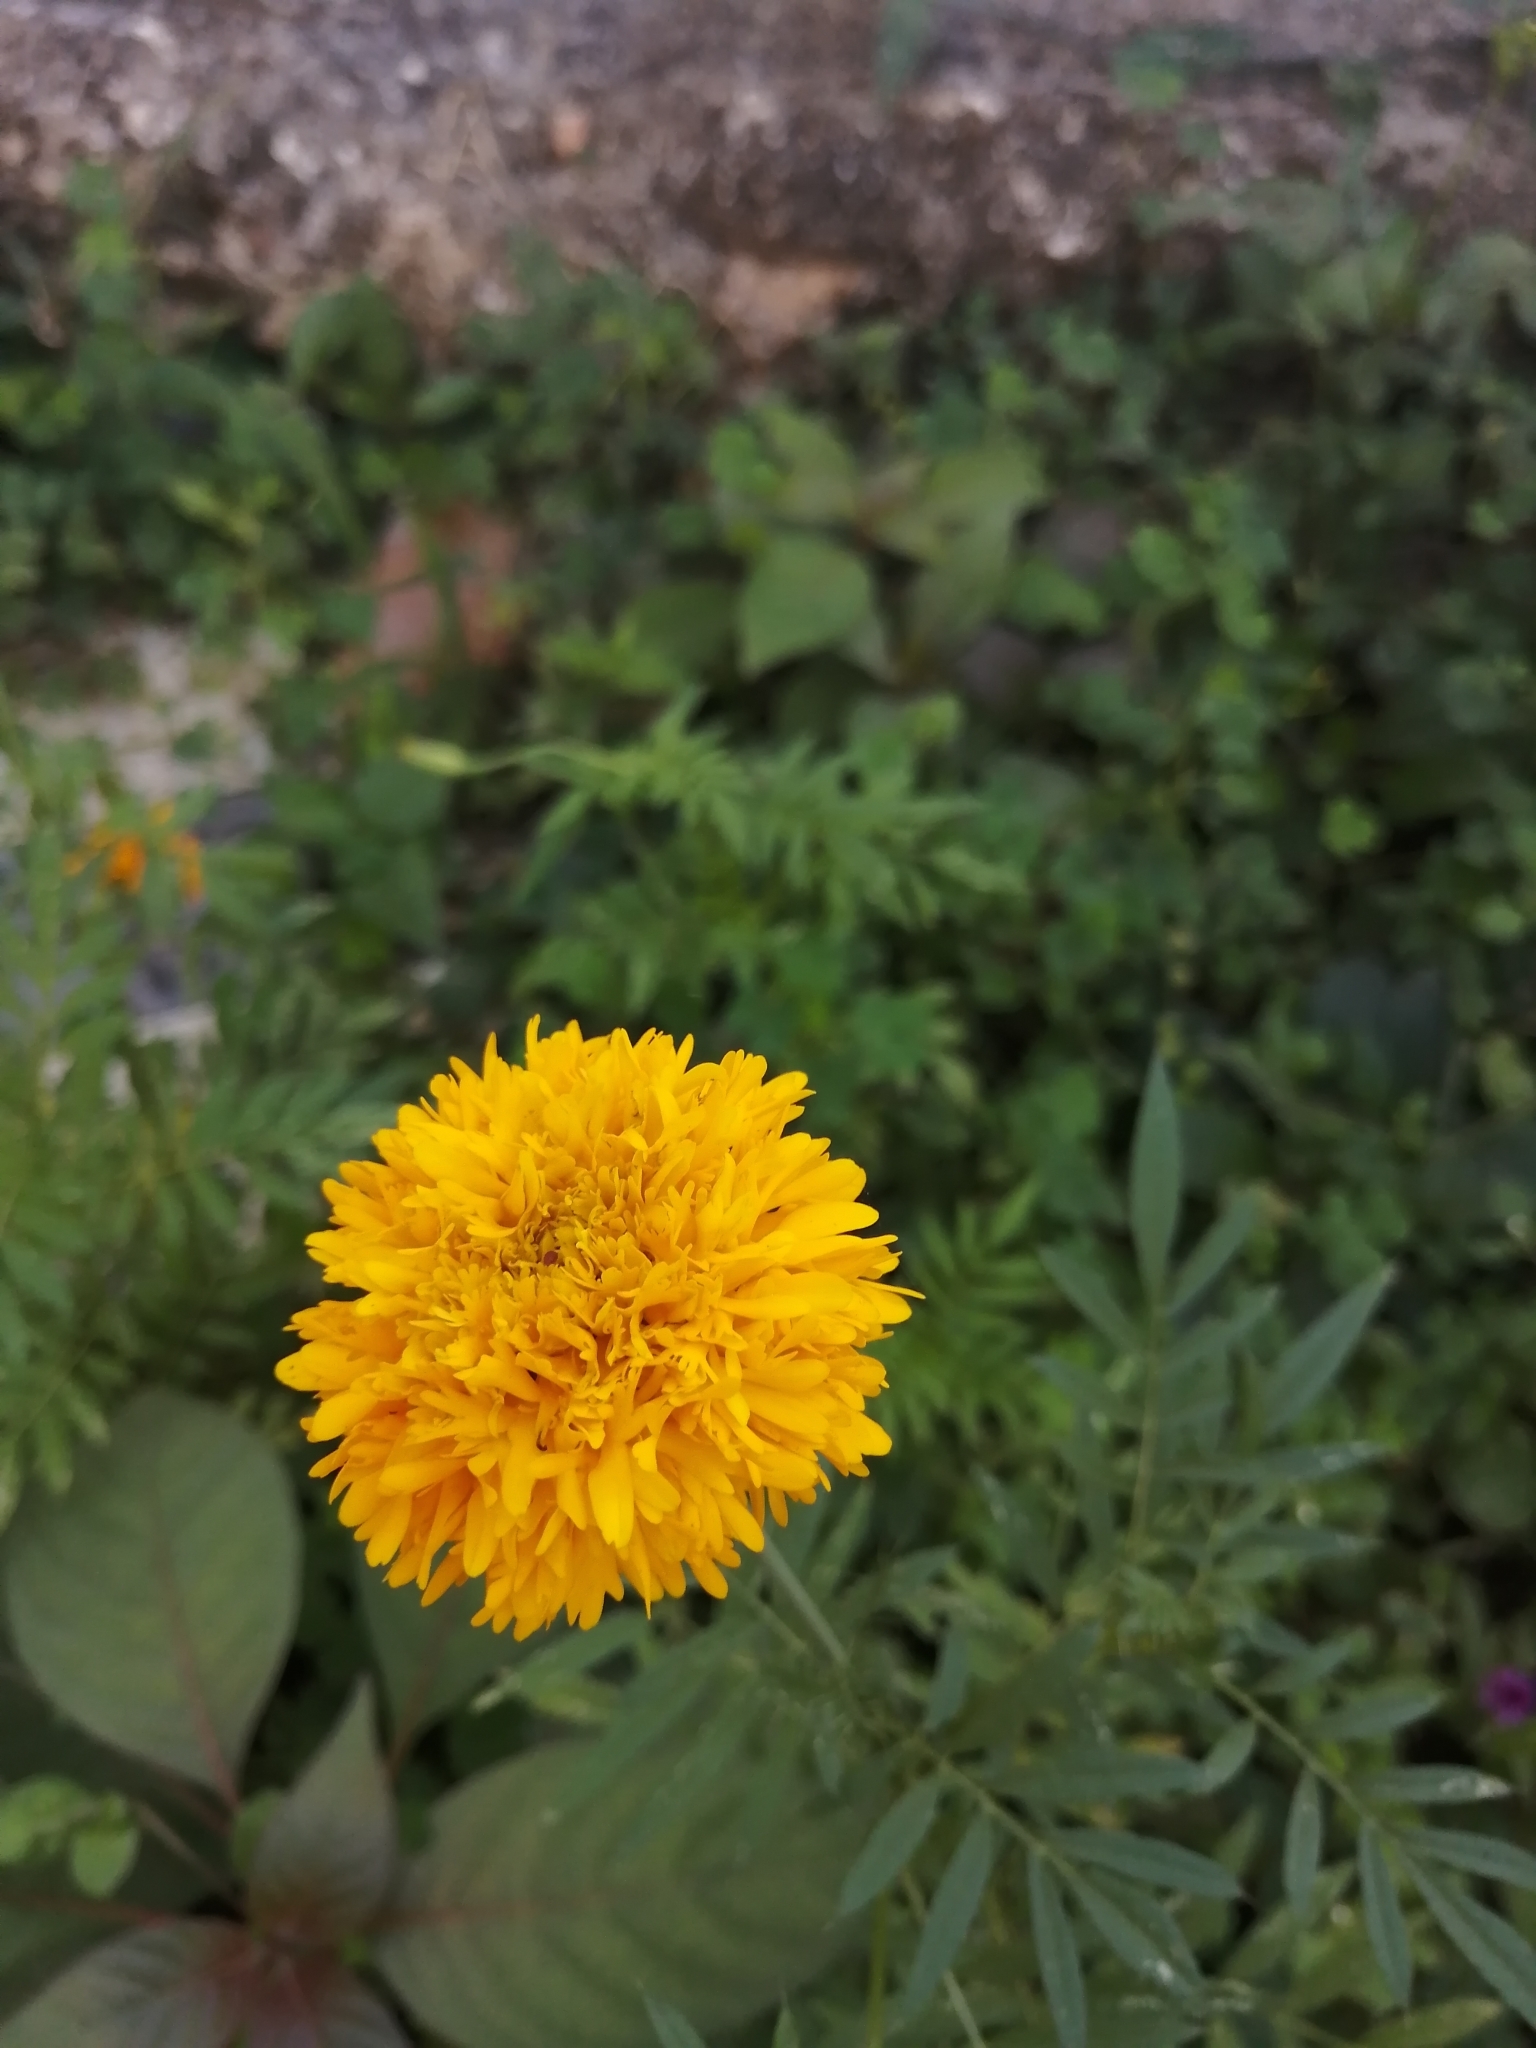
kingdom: Plantae
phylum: Tracheophyta
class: Magnoliopsida
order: Asterales
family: Asteraceae
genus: Tagetes
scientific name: Tagetes erecta
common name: African marigold
